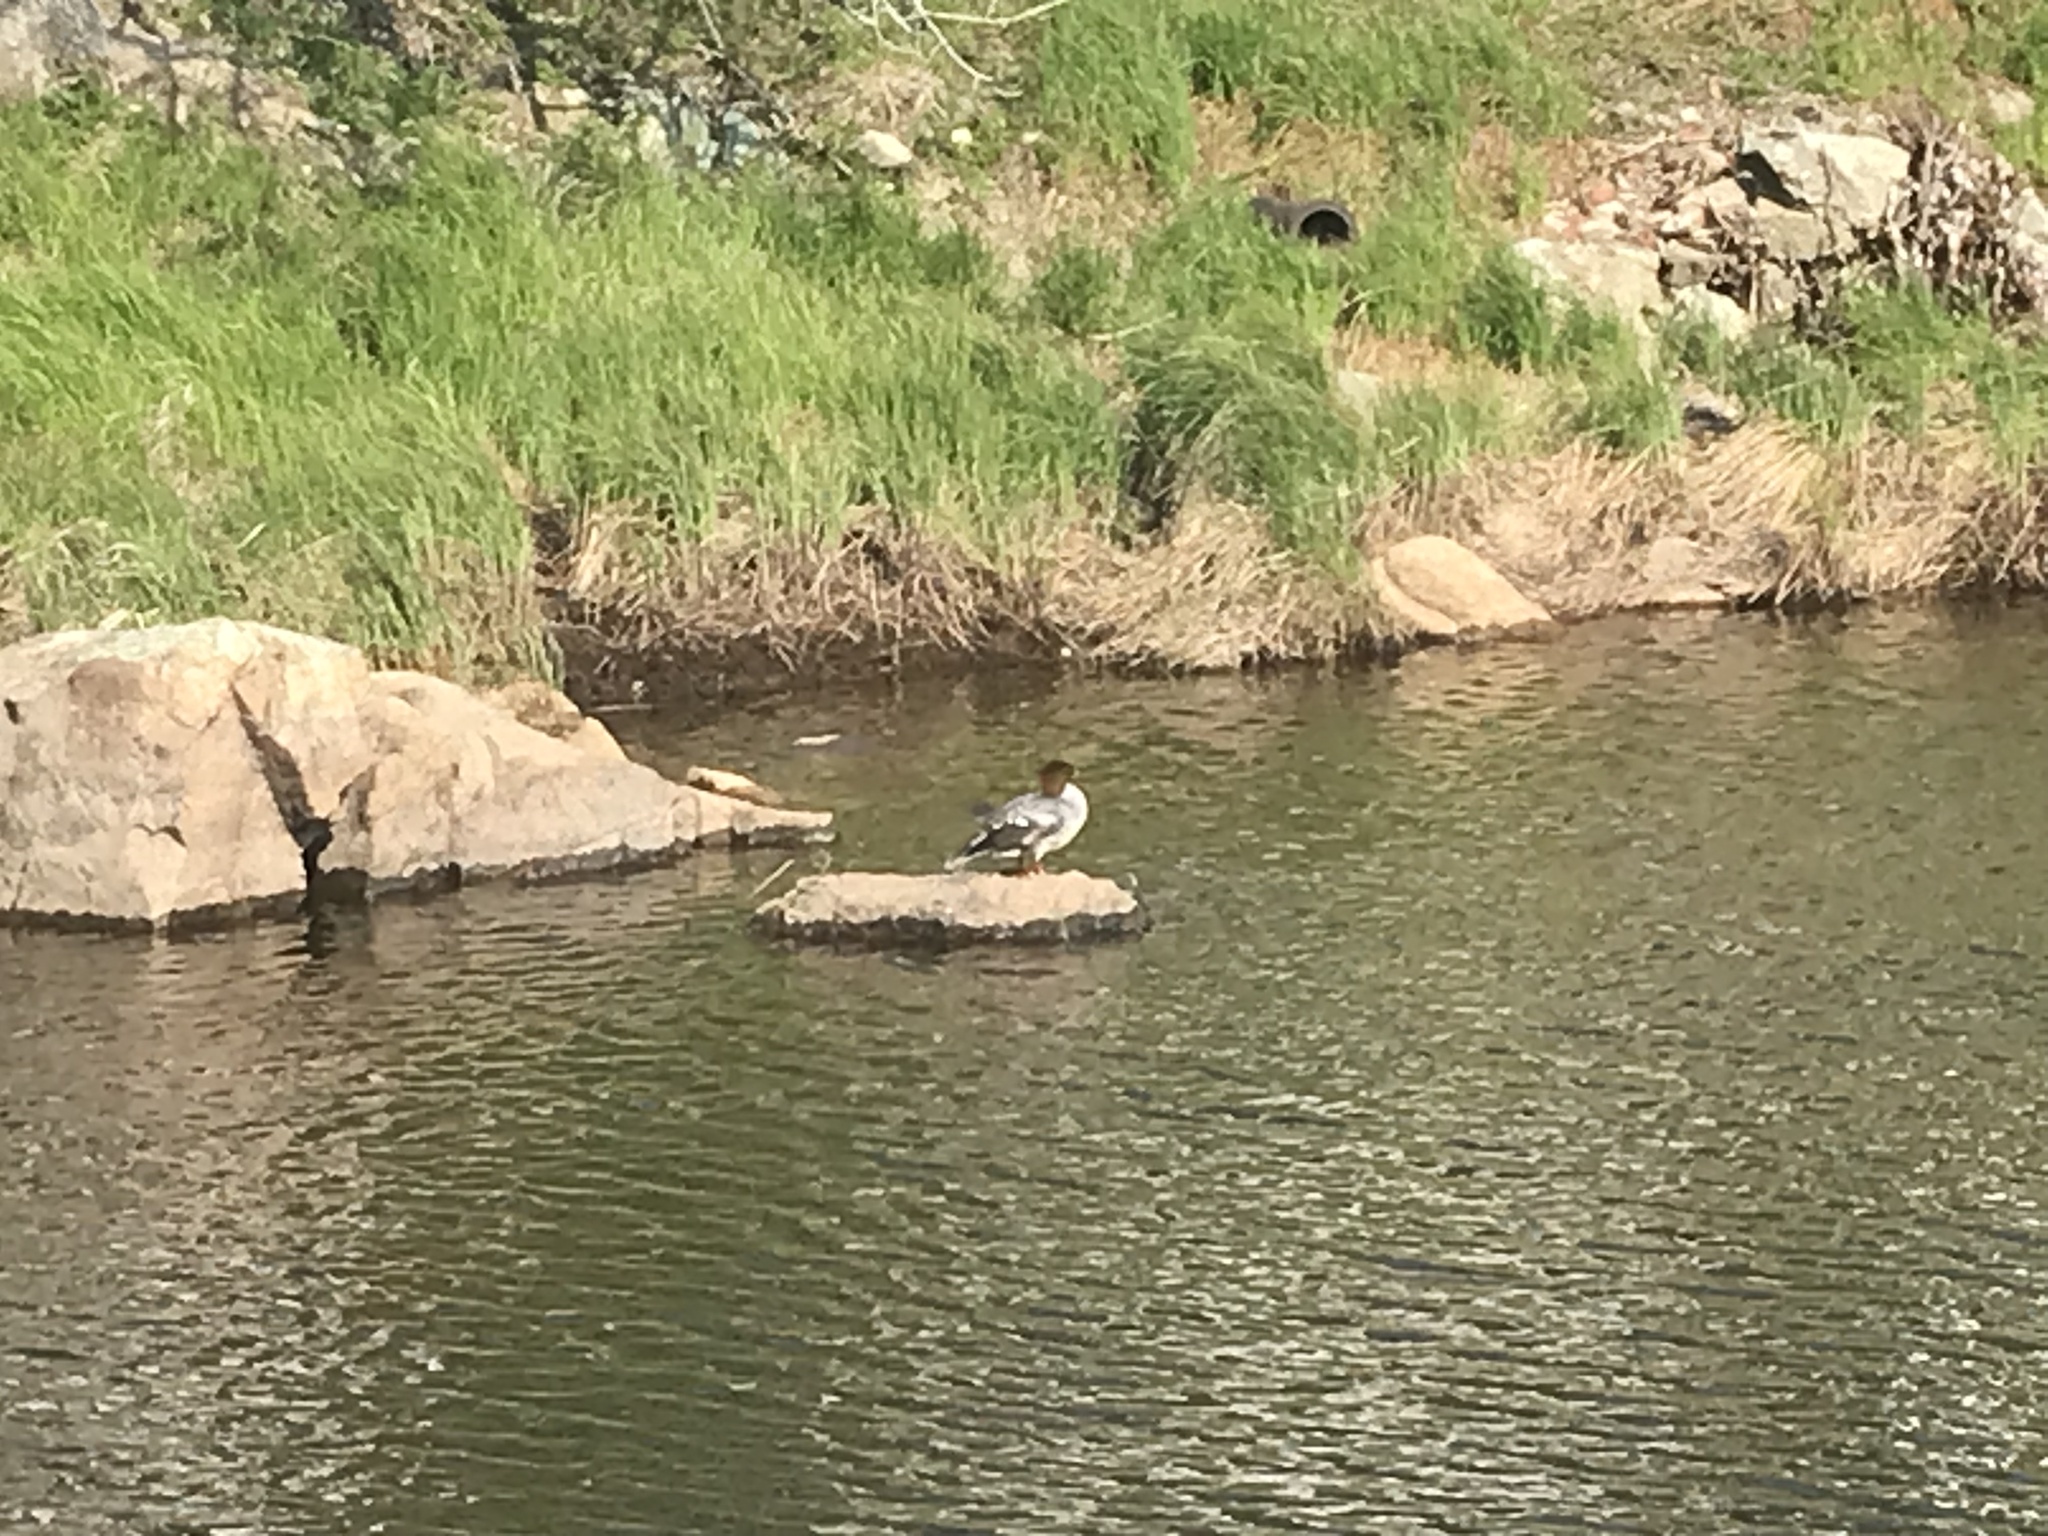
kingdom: Animalia
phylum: Chordata
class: Aves
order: Anseriformes
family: Anatidae
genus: Mergus
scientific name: Mergus merganser
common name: Common merganser
